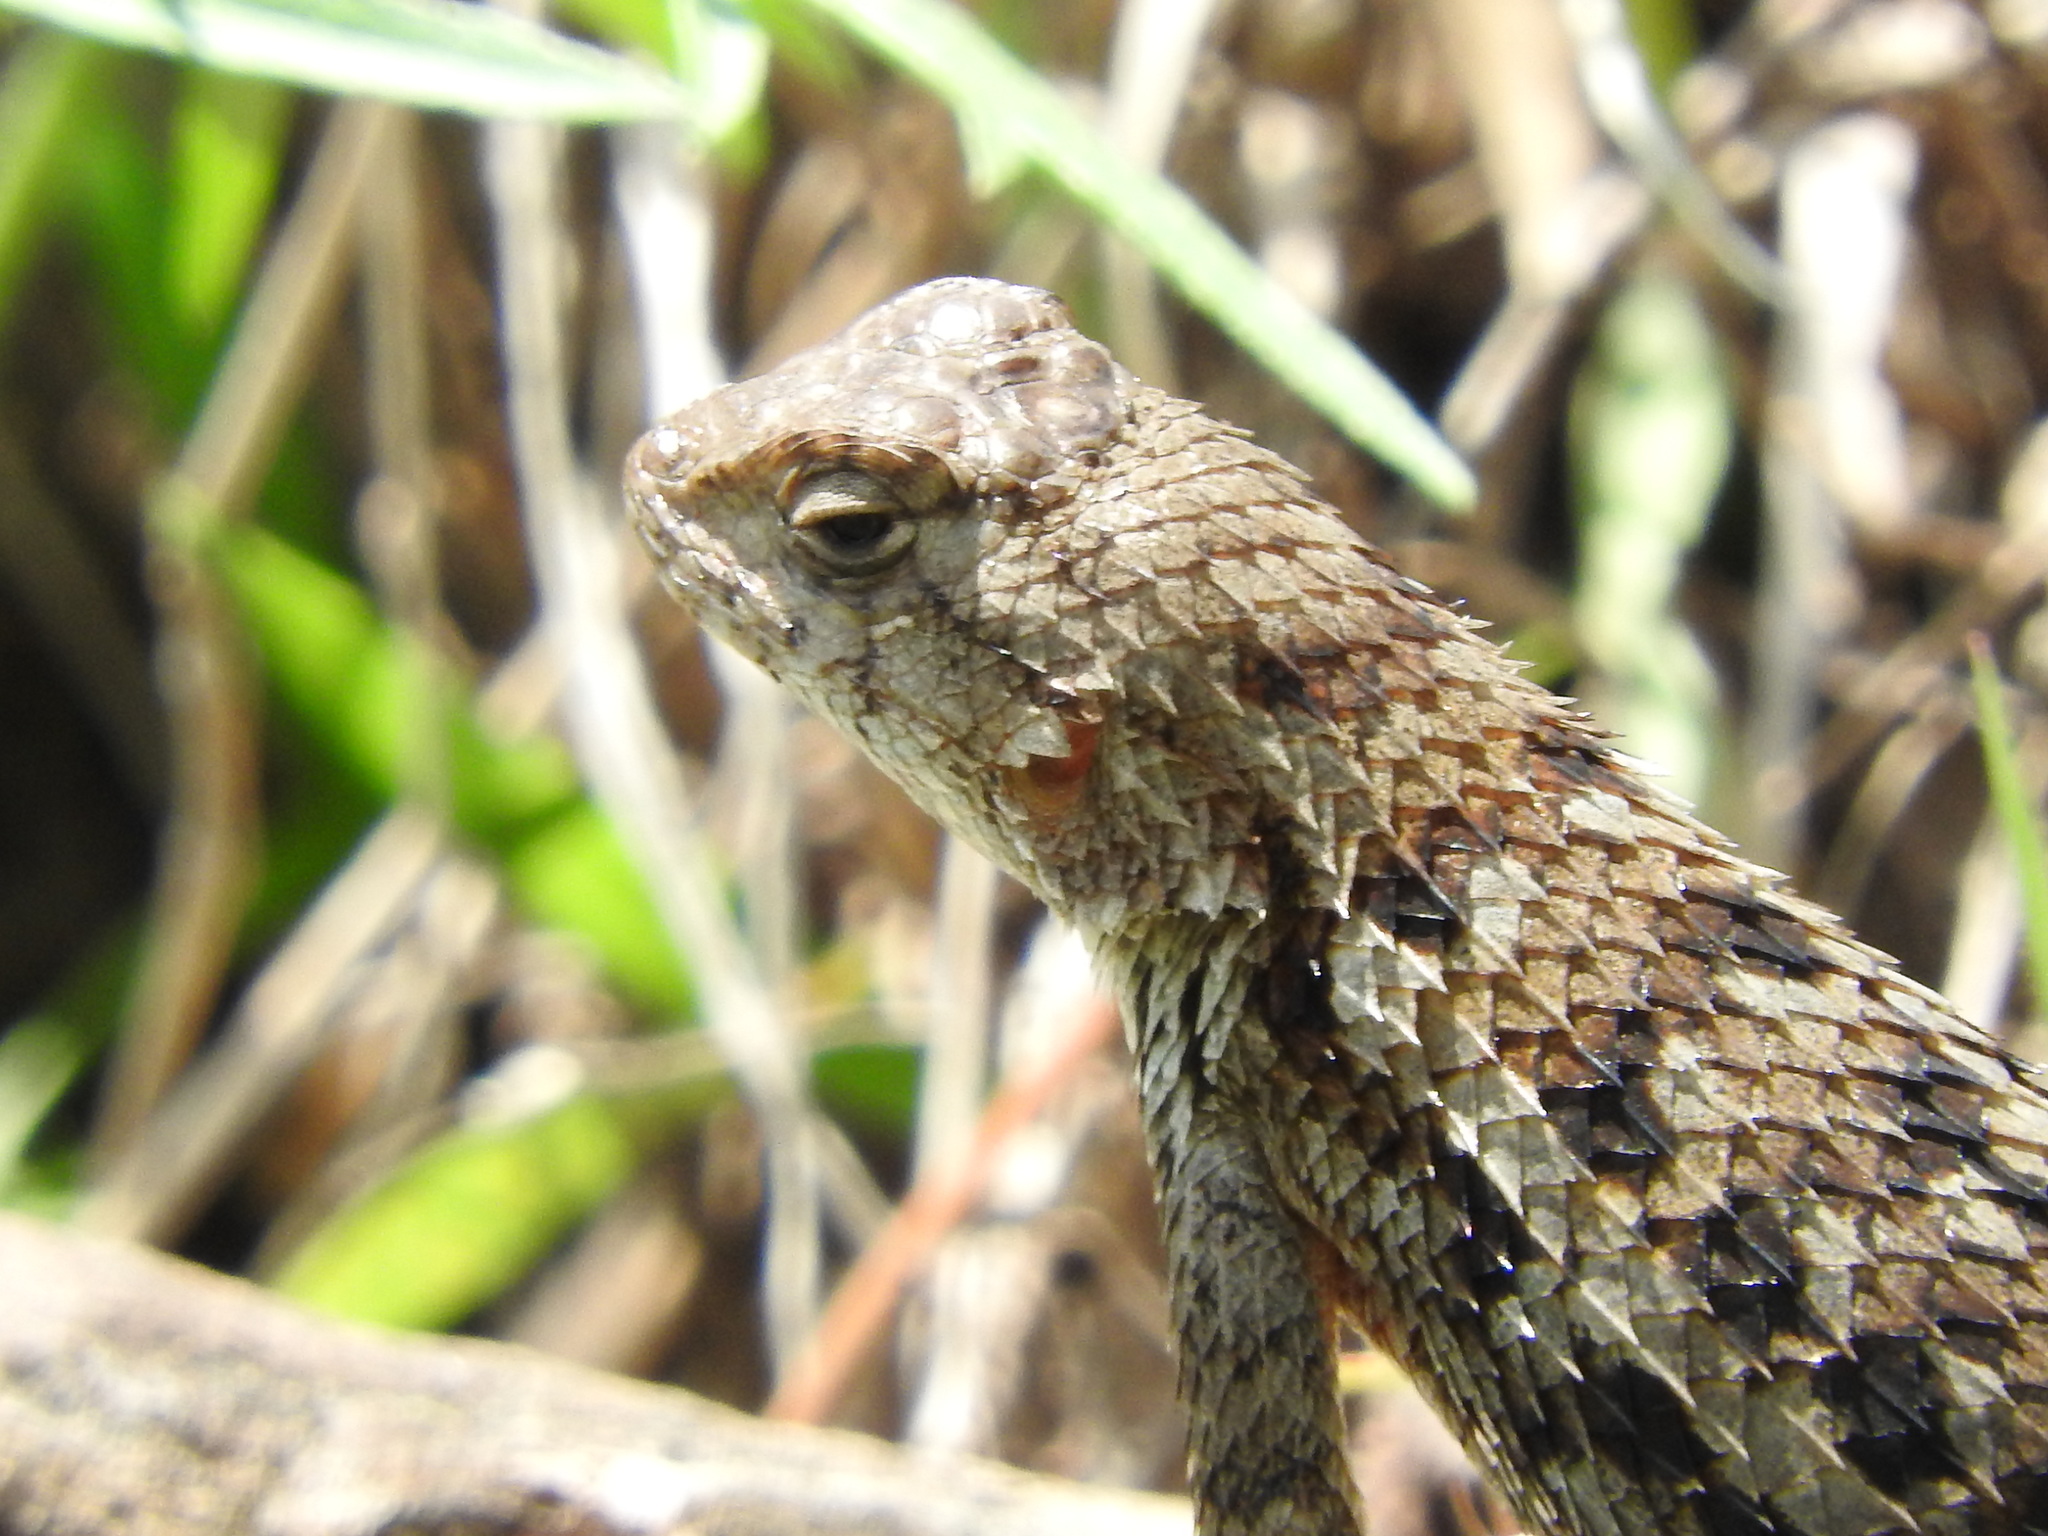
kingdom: Animalia
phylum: Chordata
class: Squamata
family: Phrynosomatidae
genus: Sceloporus
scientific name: Sceloporus spinosus
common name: Blue-spotted spiny lizard [caeruleopunctatus]
